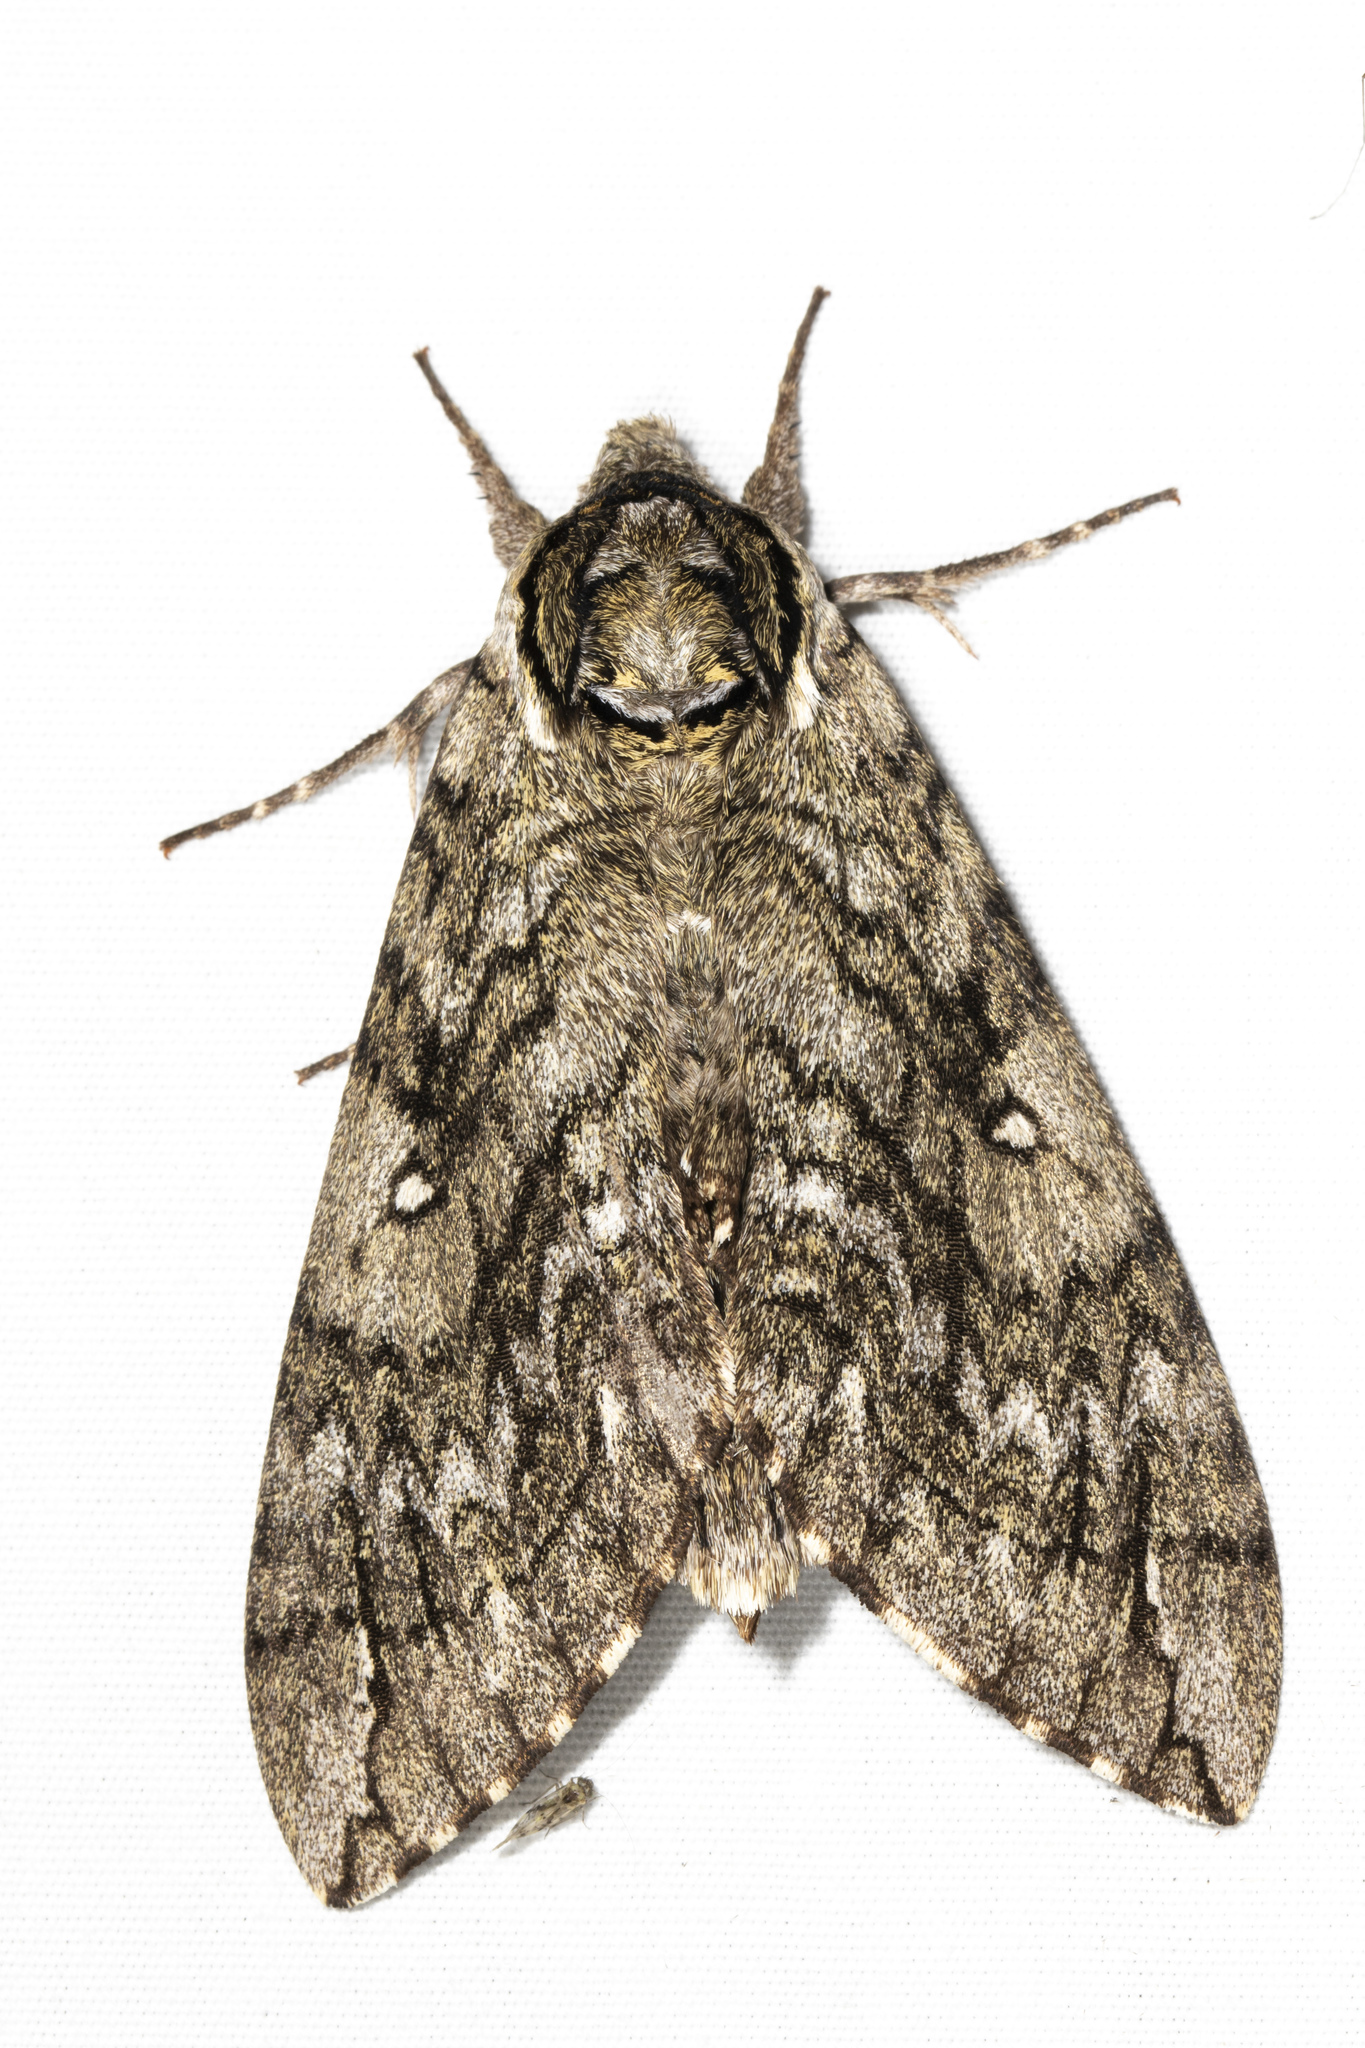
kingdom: Animalia
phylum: Arthropoda
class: Insecta
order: Lepidoptera
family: Sphingidae
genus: Ceratomia
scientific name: Ceratomia undulosa
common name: Waved sphinx
